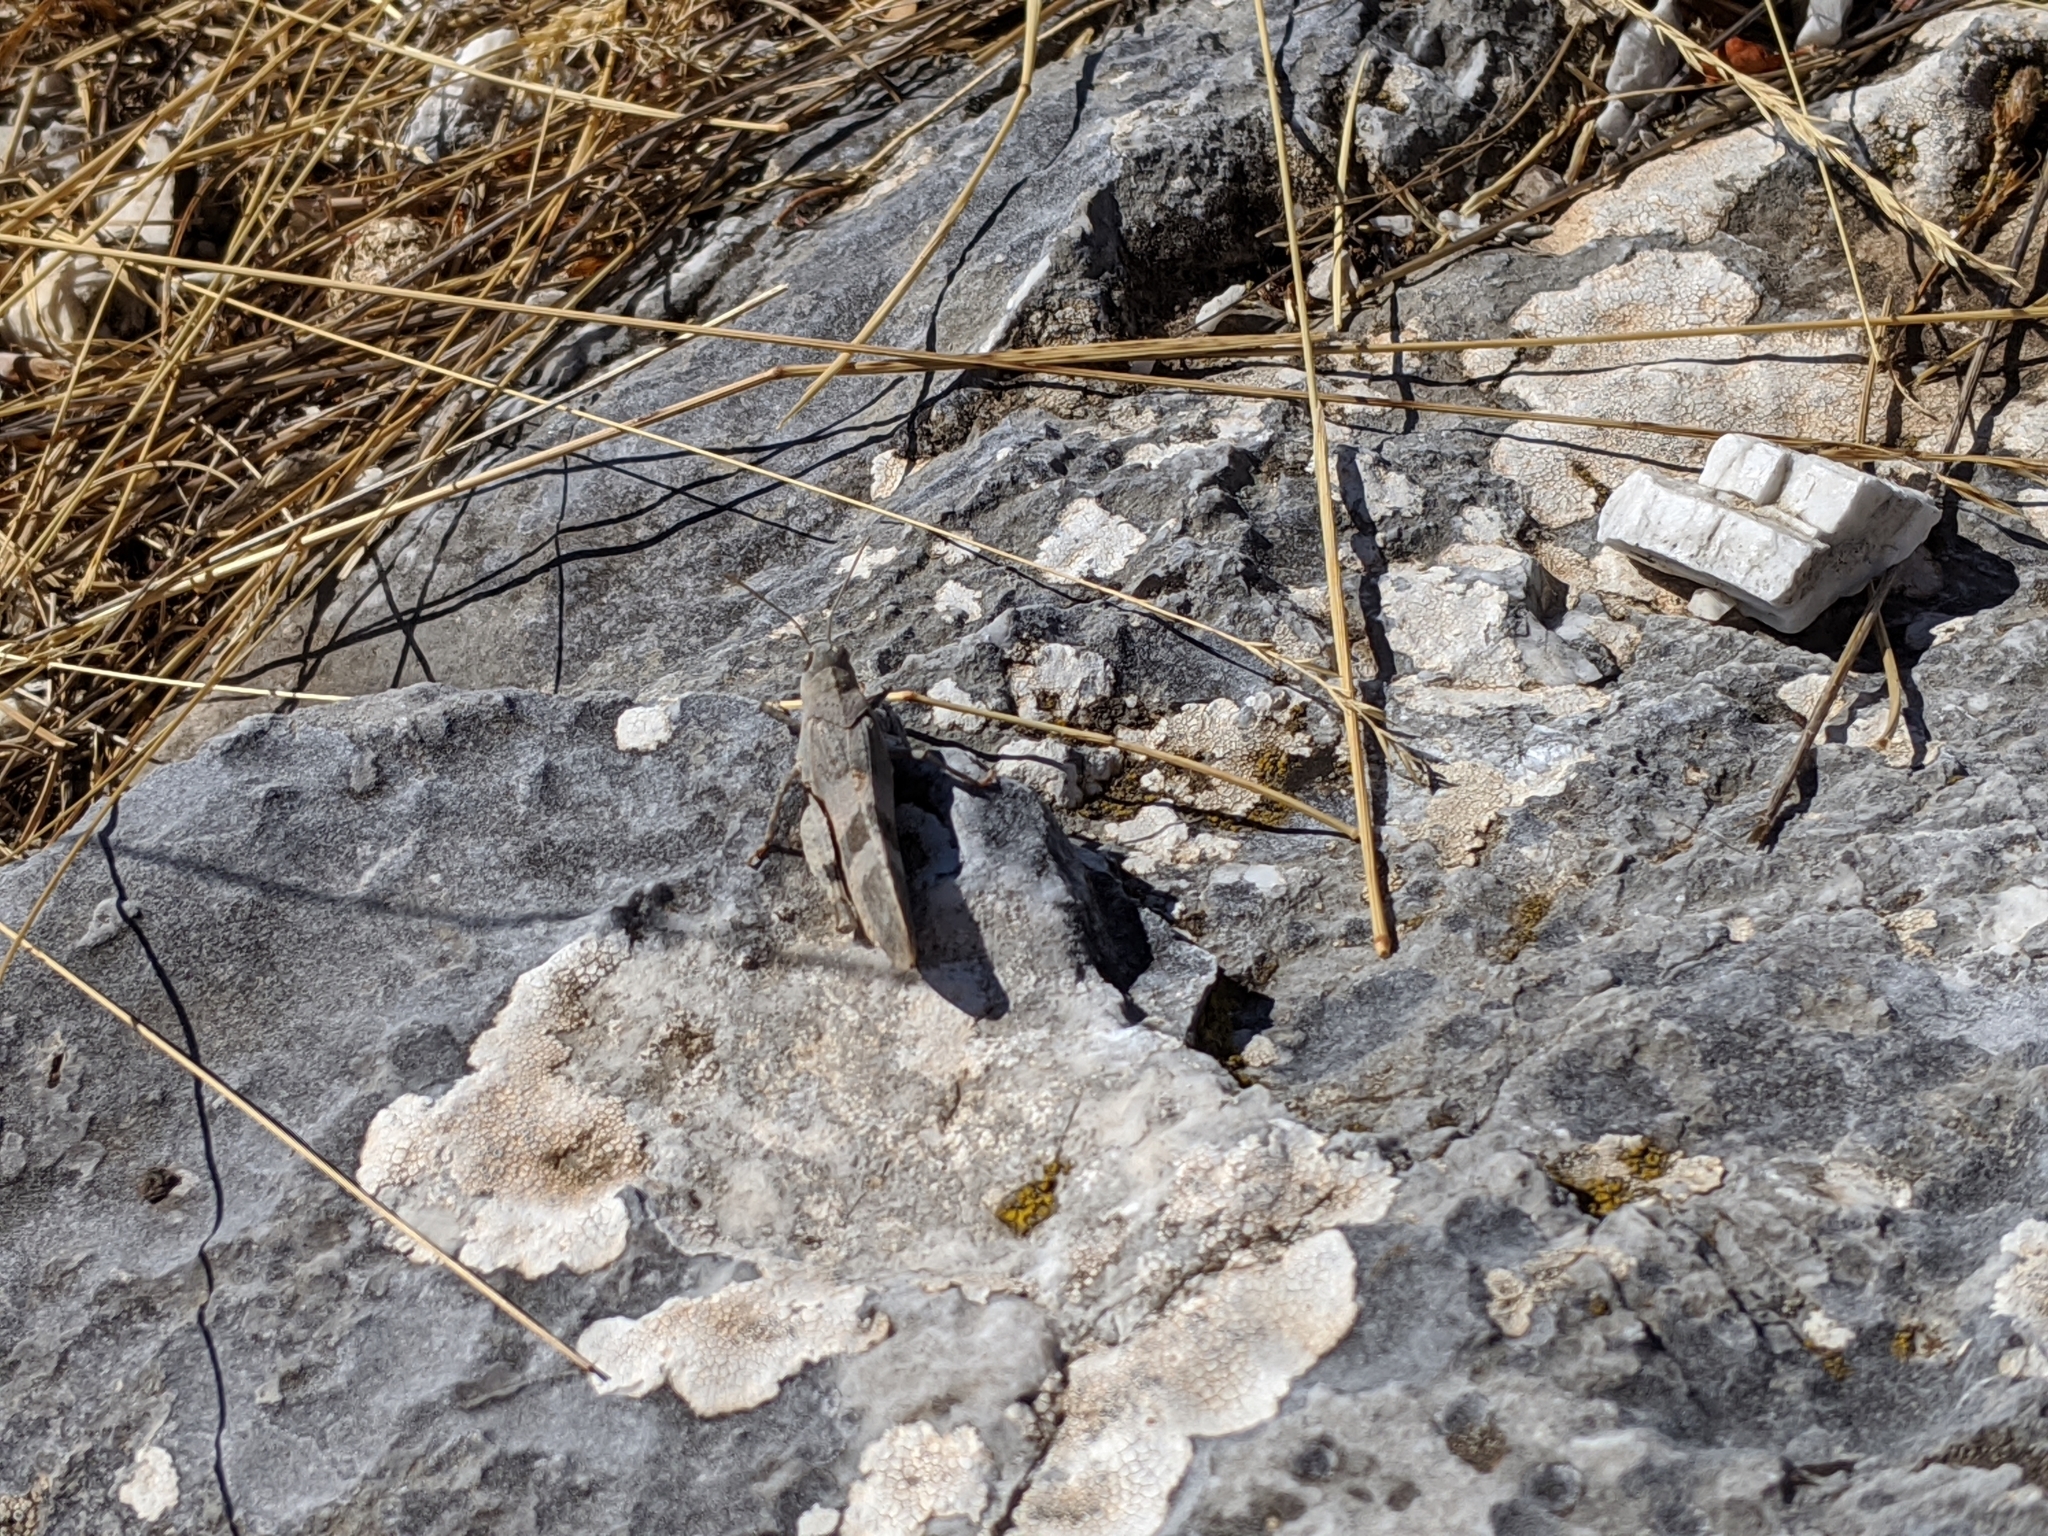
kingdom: Animalia
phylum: Arthropoda
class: Insecta
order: Orthoptera
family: Acrididae
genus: Oedipoda
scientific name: Oedipoda germanica
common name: Red band-winged grasshopper
